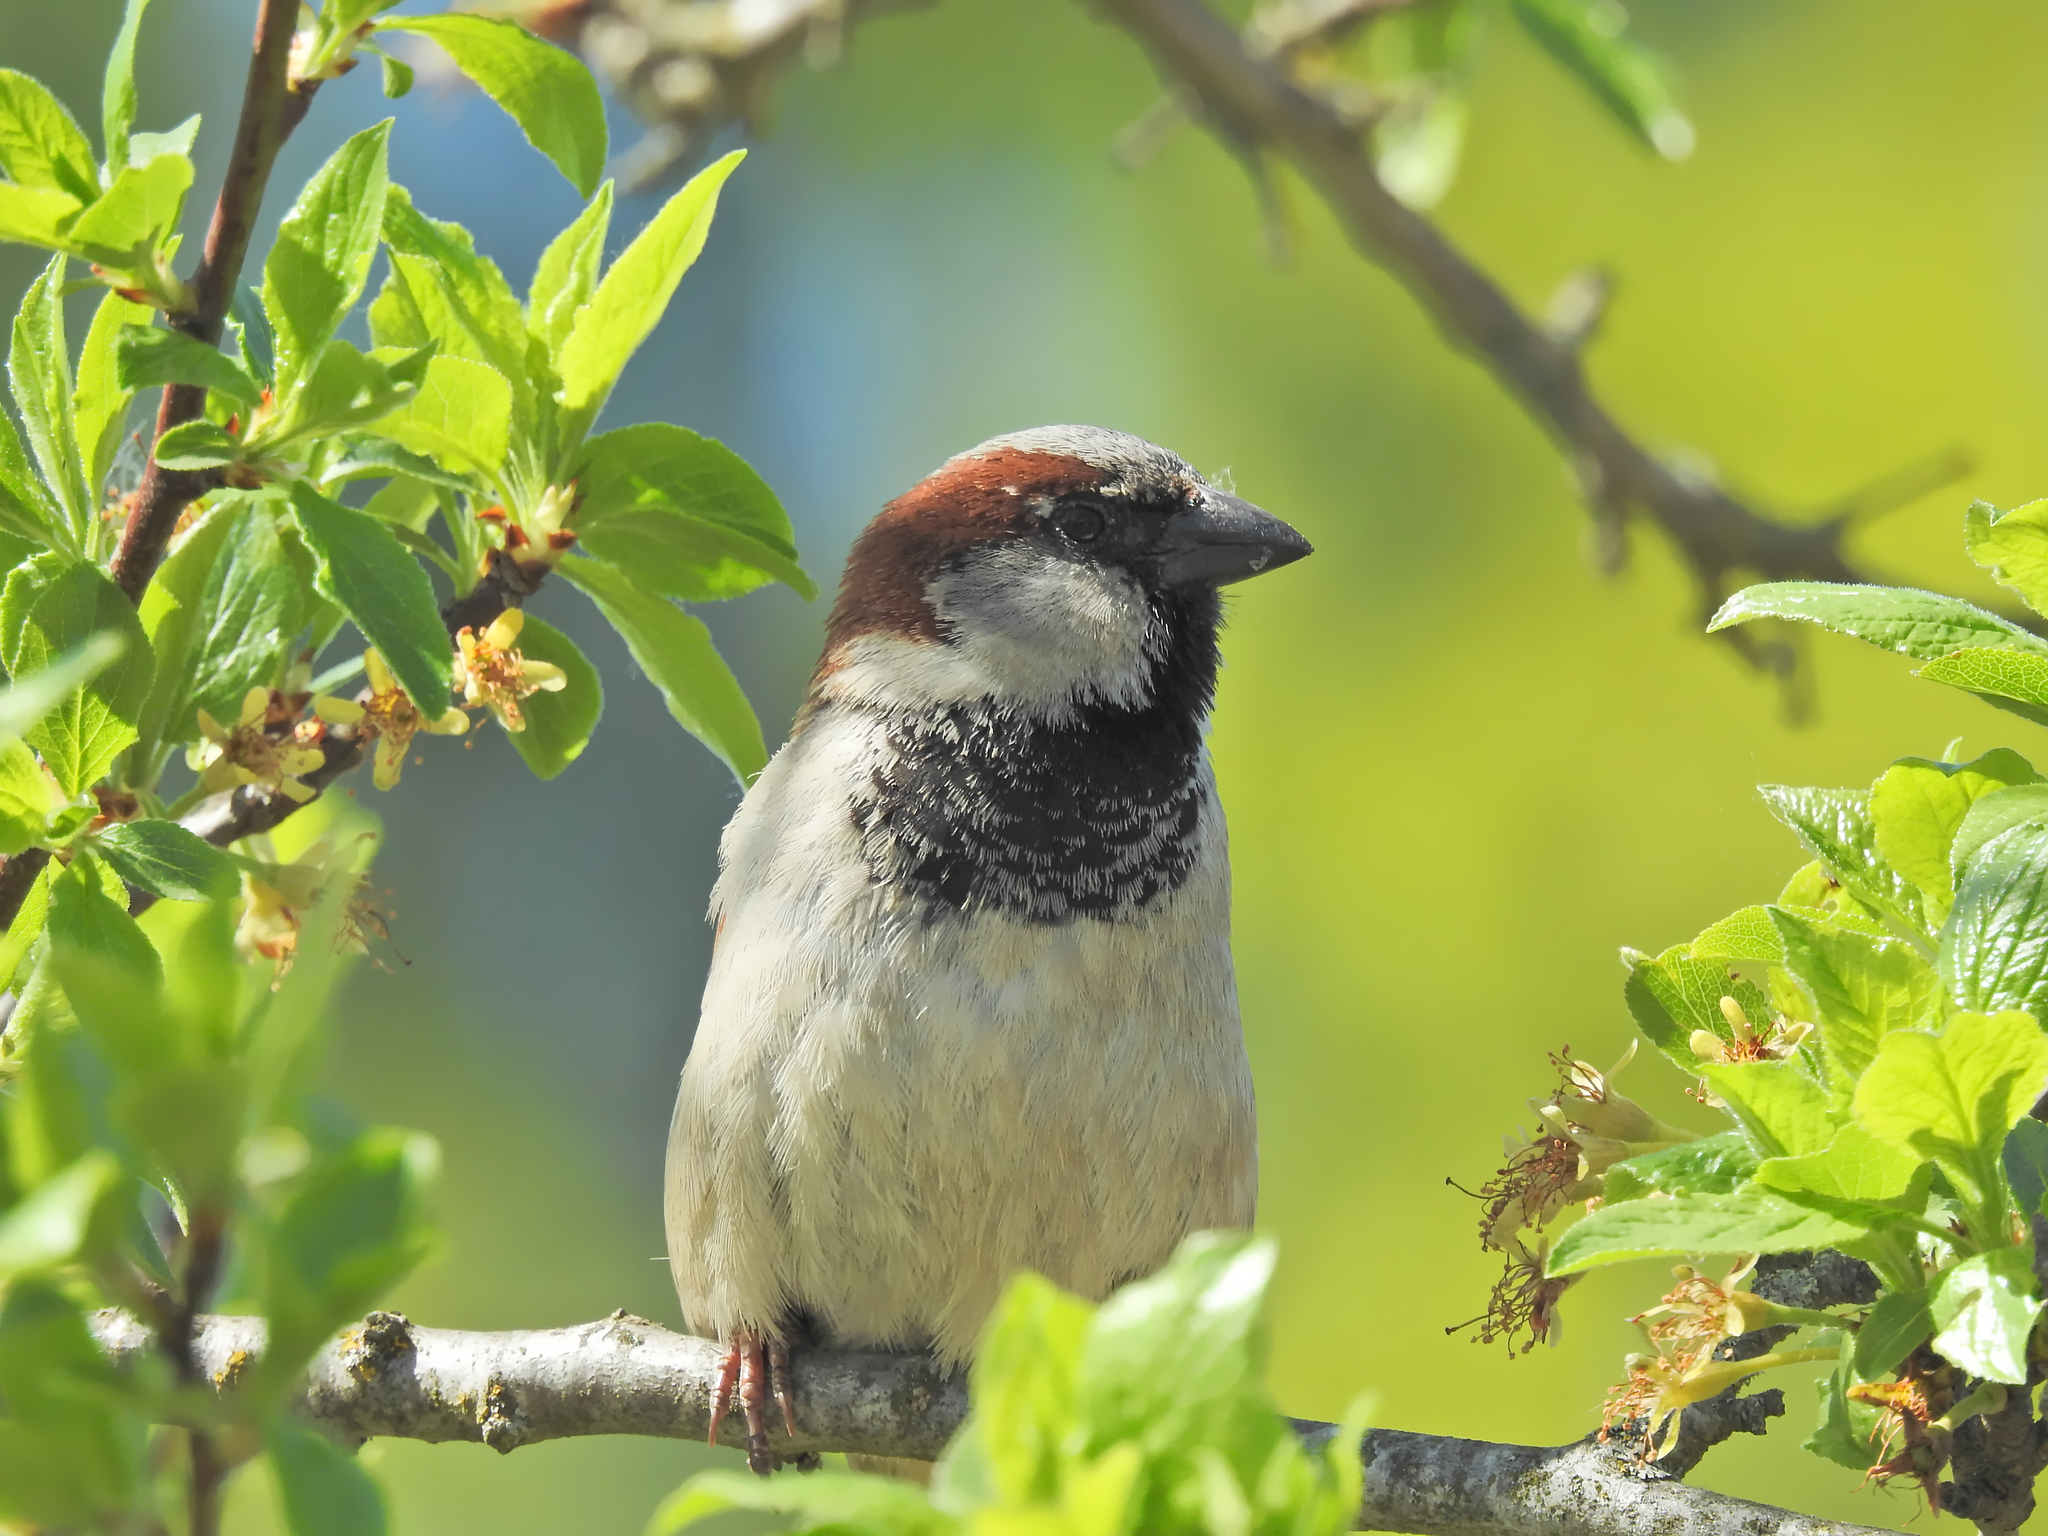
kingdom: Animalia
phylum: Chordata
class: Aves
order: Passeriformes
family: Passeridae
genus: Passer
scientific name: Passer domesticus
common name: House sparrow
